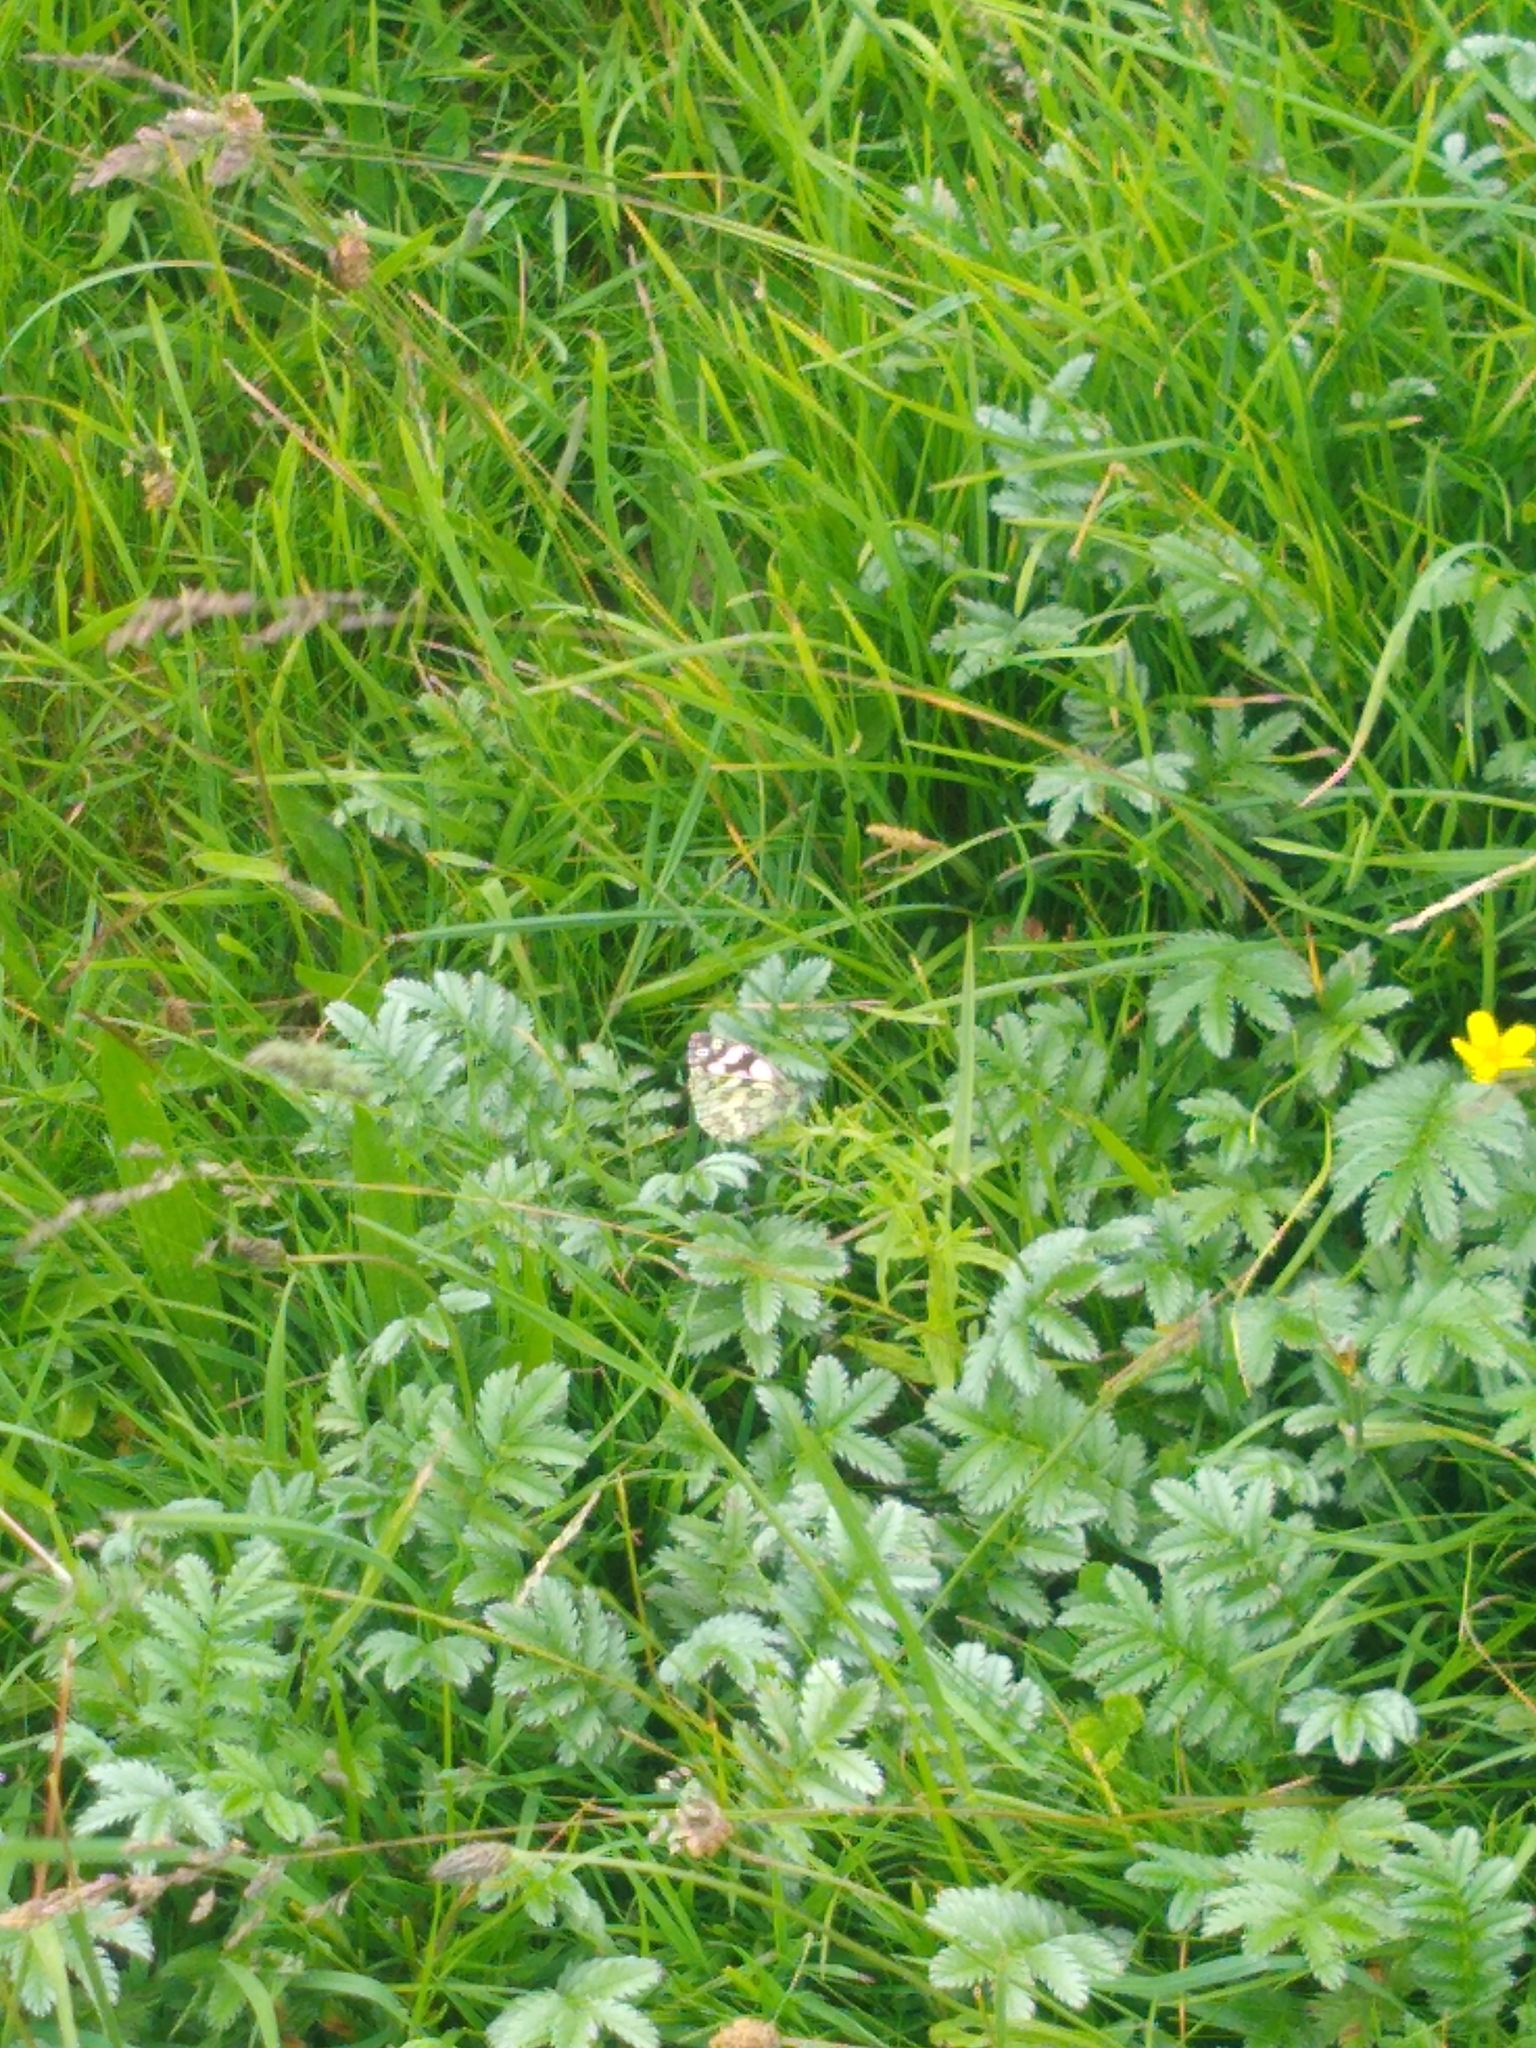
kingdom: Animalia
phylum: Arthropoda
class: Insecta
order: Lepidoptera
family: Nymphalidae
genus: Melanargia
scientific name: Melanargia galathea
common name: Marbled white
